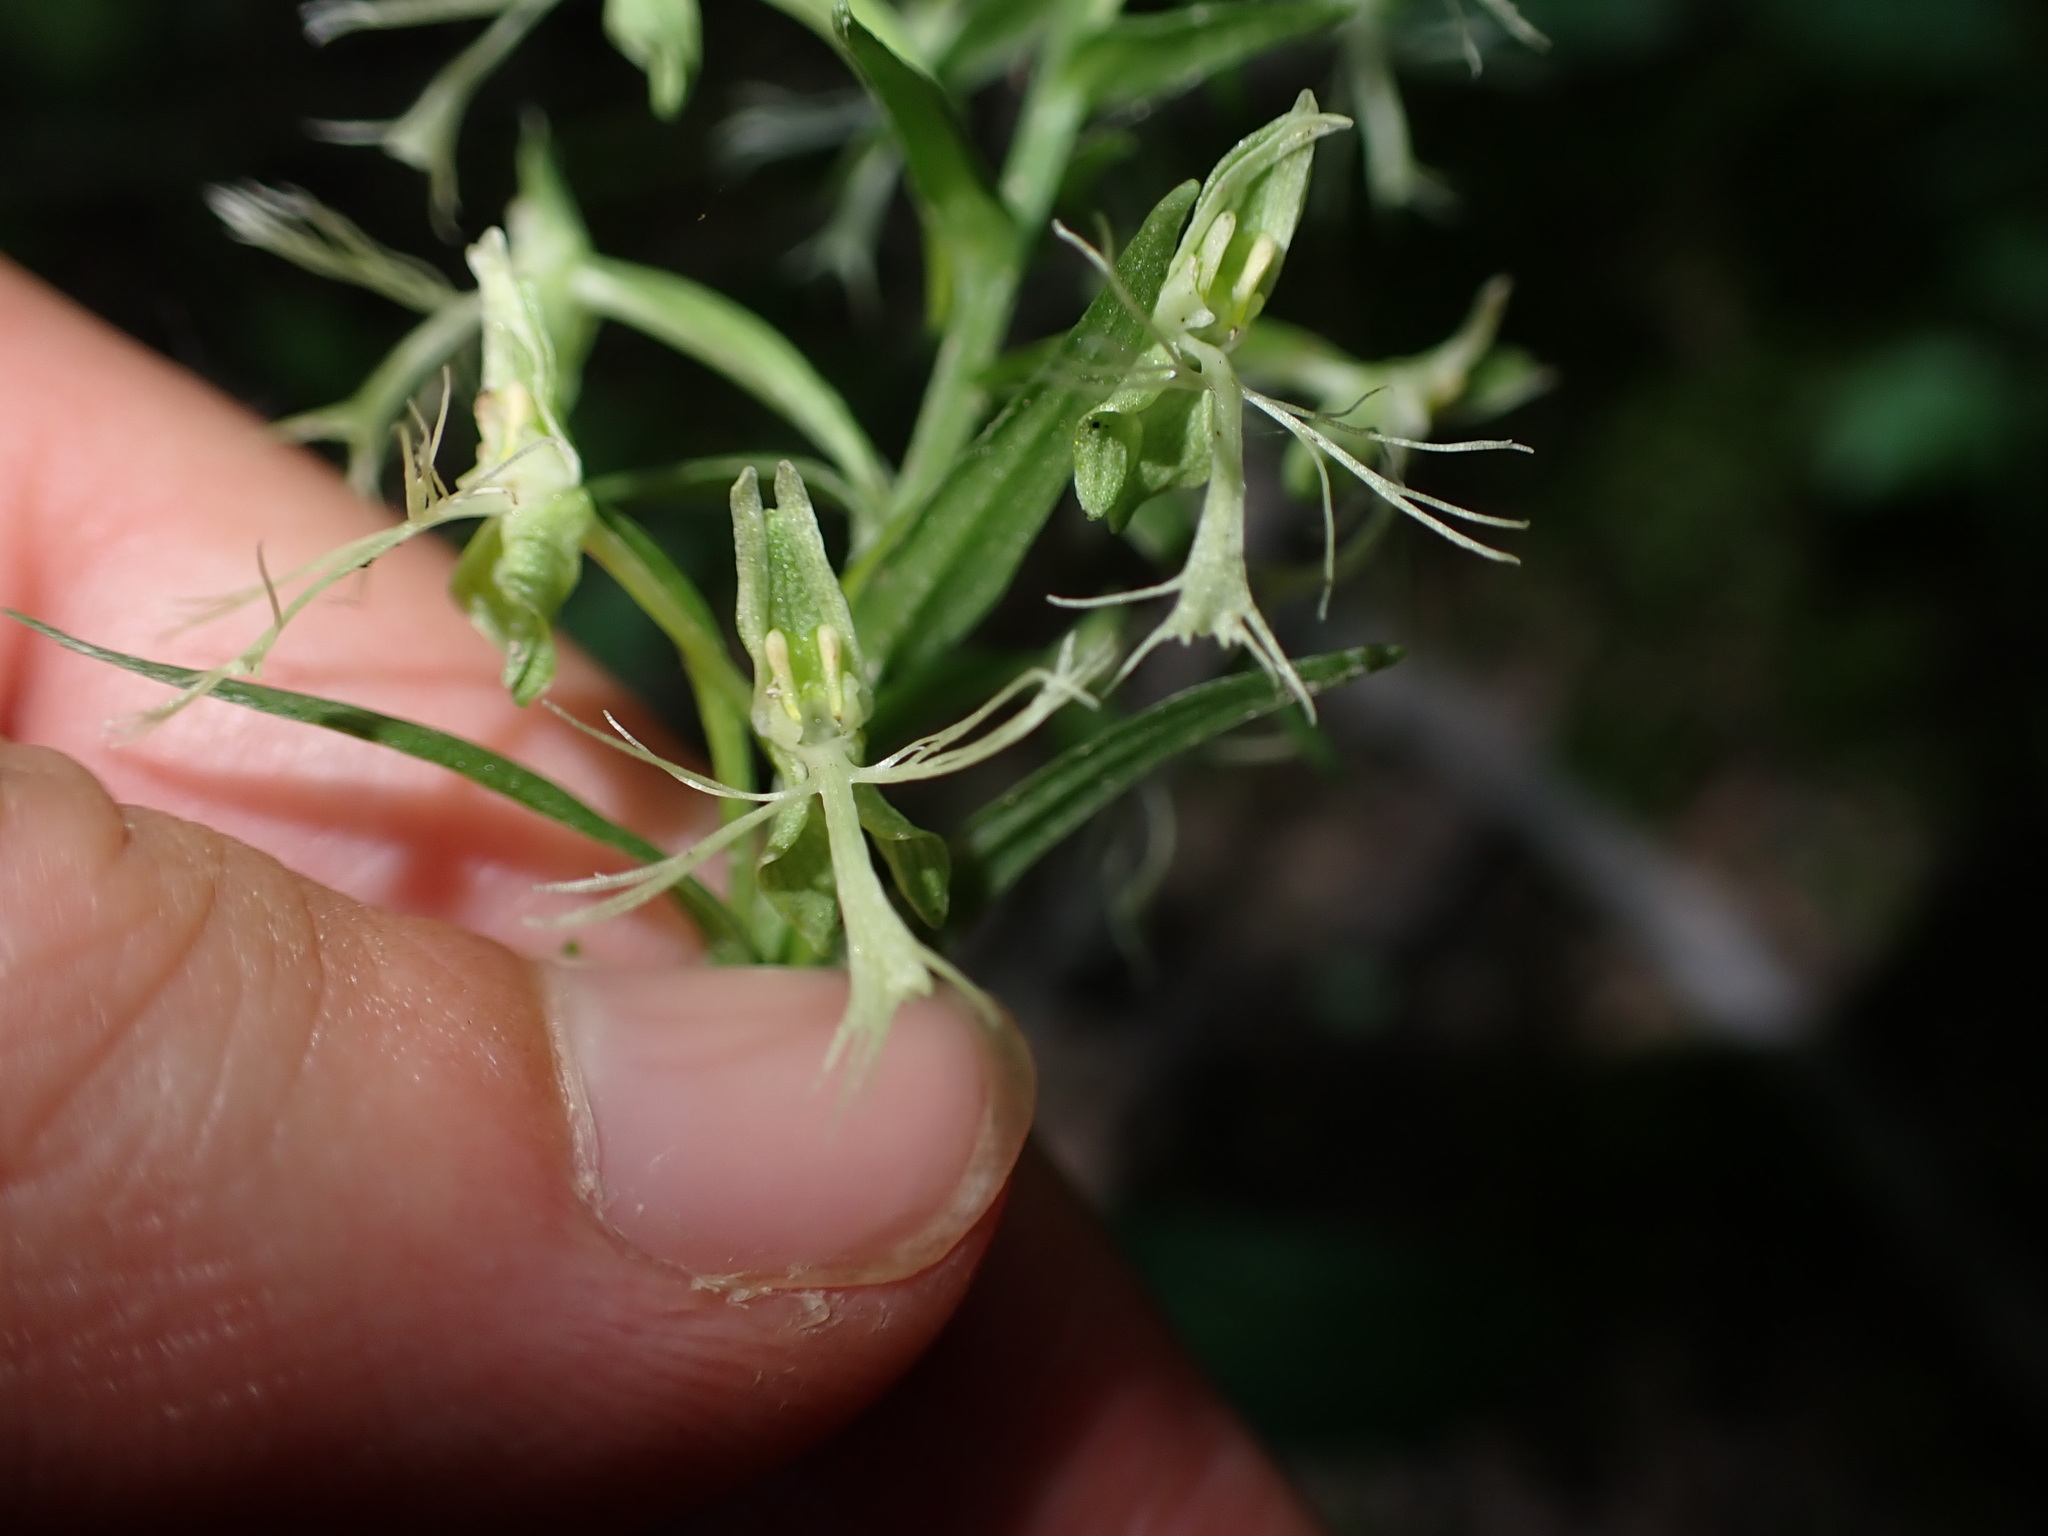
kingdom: Plantae
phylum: Tracheophyta
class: Liliopsida
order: Asparagales
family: Orchidaceae
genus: Platanthera
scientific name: Platanthera lacera
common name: Green fringed orchid
